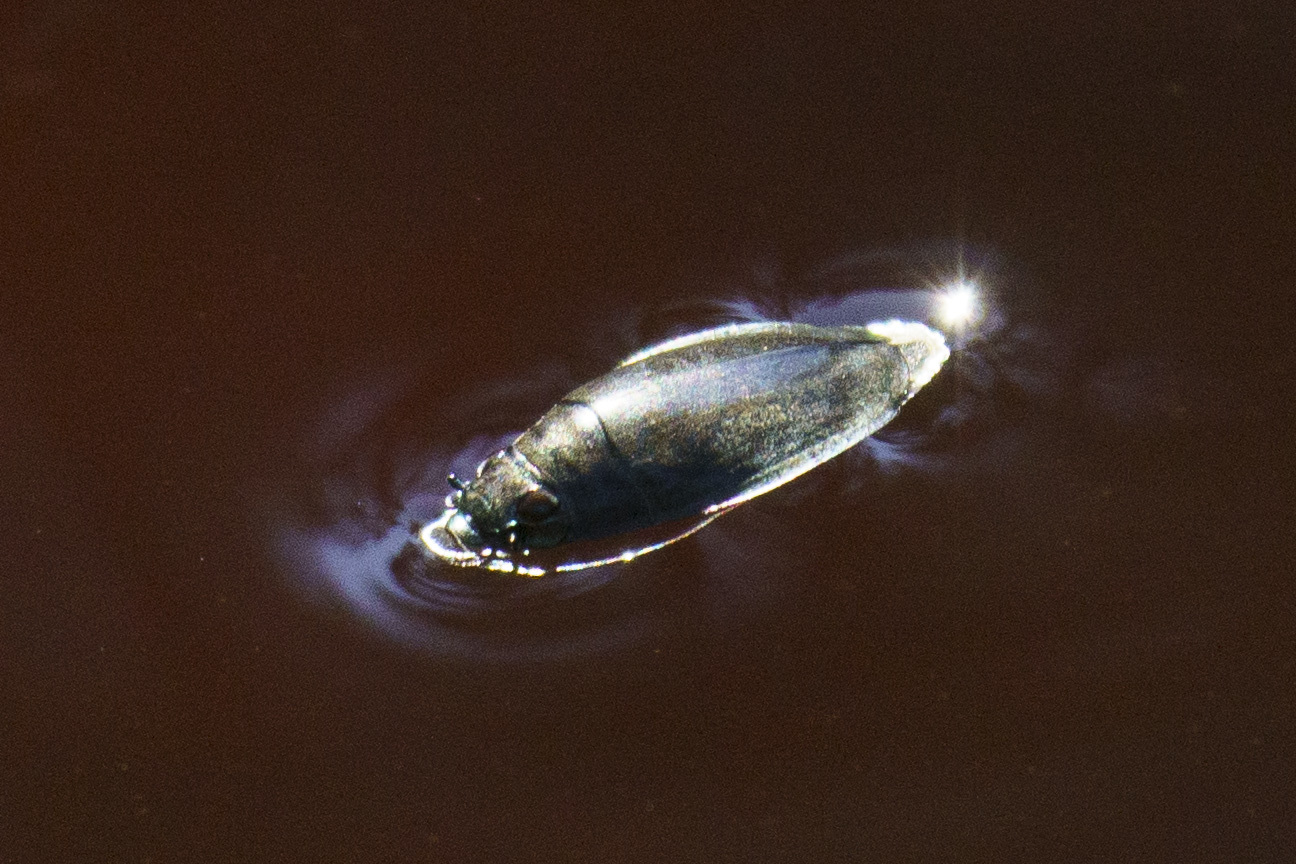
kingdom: Animalia
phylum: Arthropoda
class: Insecta
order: Coleoptera
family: Gyrinidae
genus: Dineutus
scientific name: Dineutus
